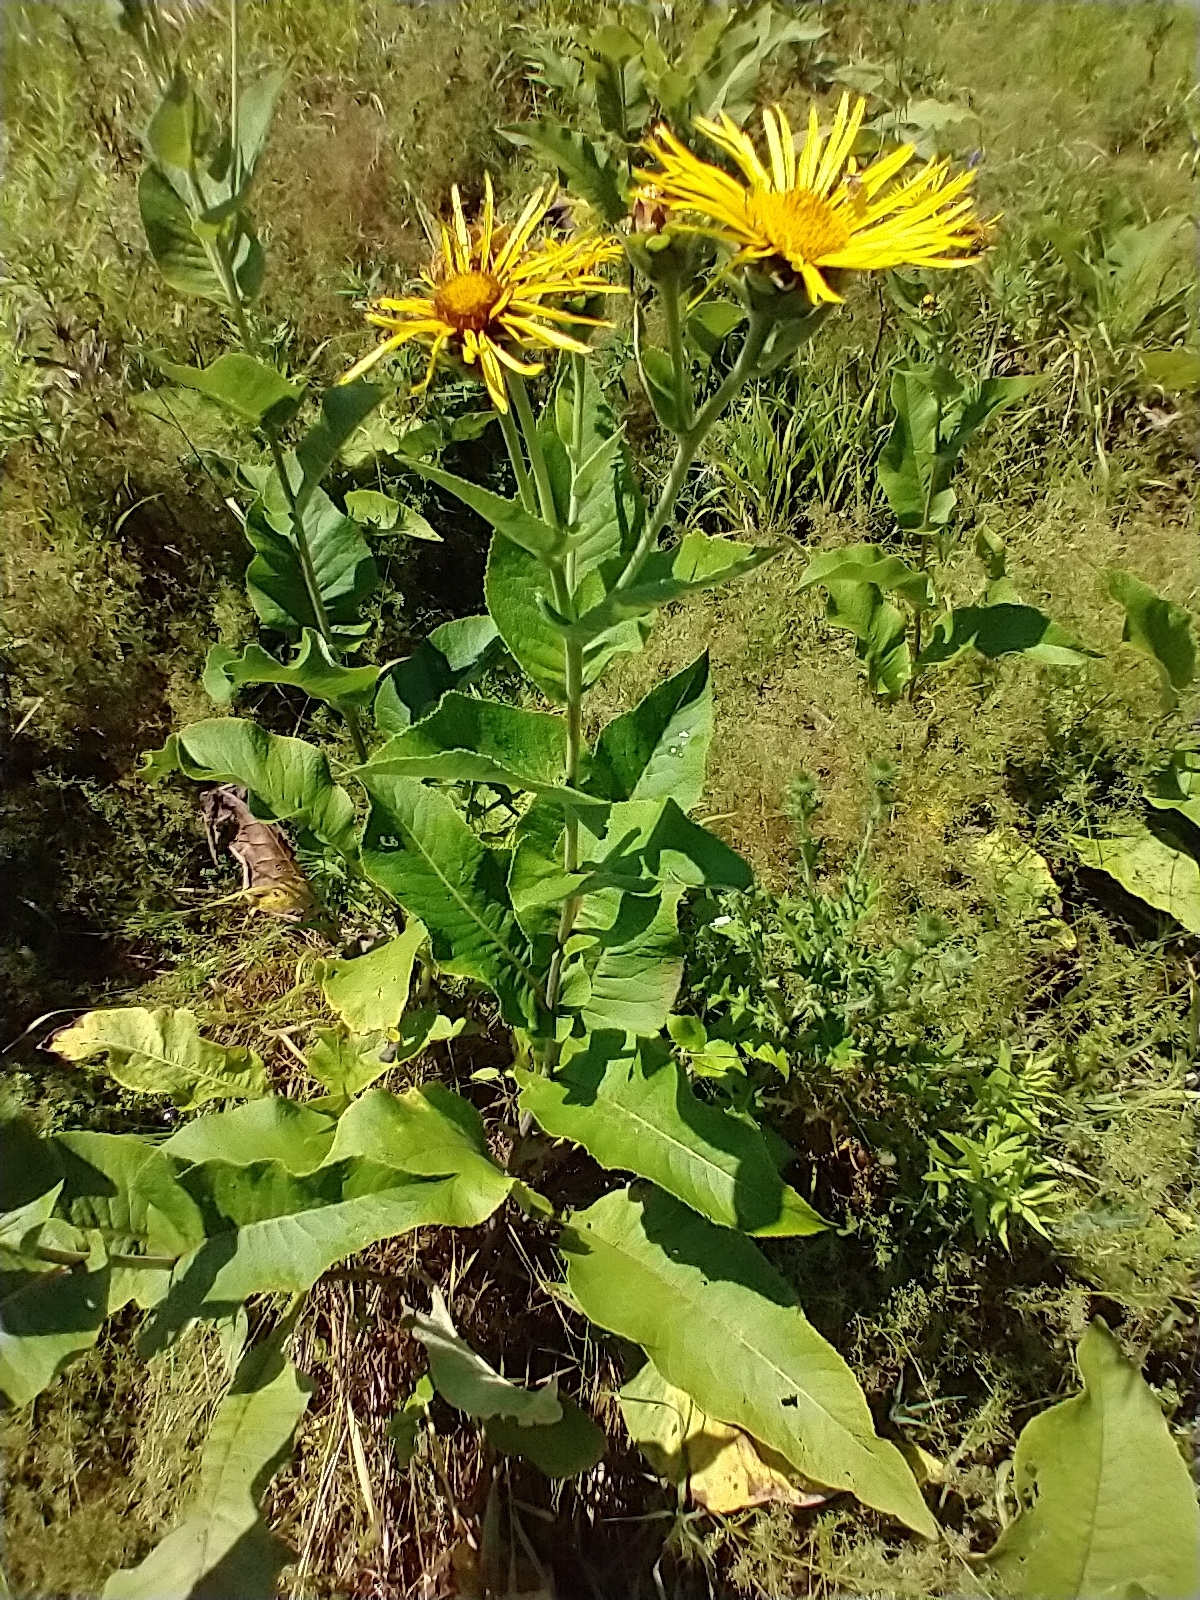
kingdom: Plantae
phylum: Tracheophyta
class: Magnoliopsida
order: Asterales
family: Asteraceae
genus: Inula
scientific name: Inula helenium
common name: Elecampane
